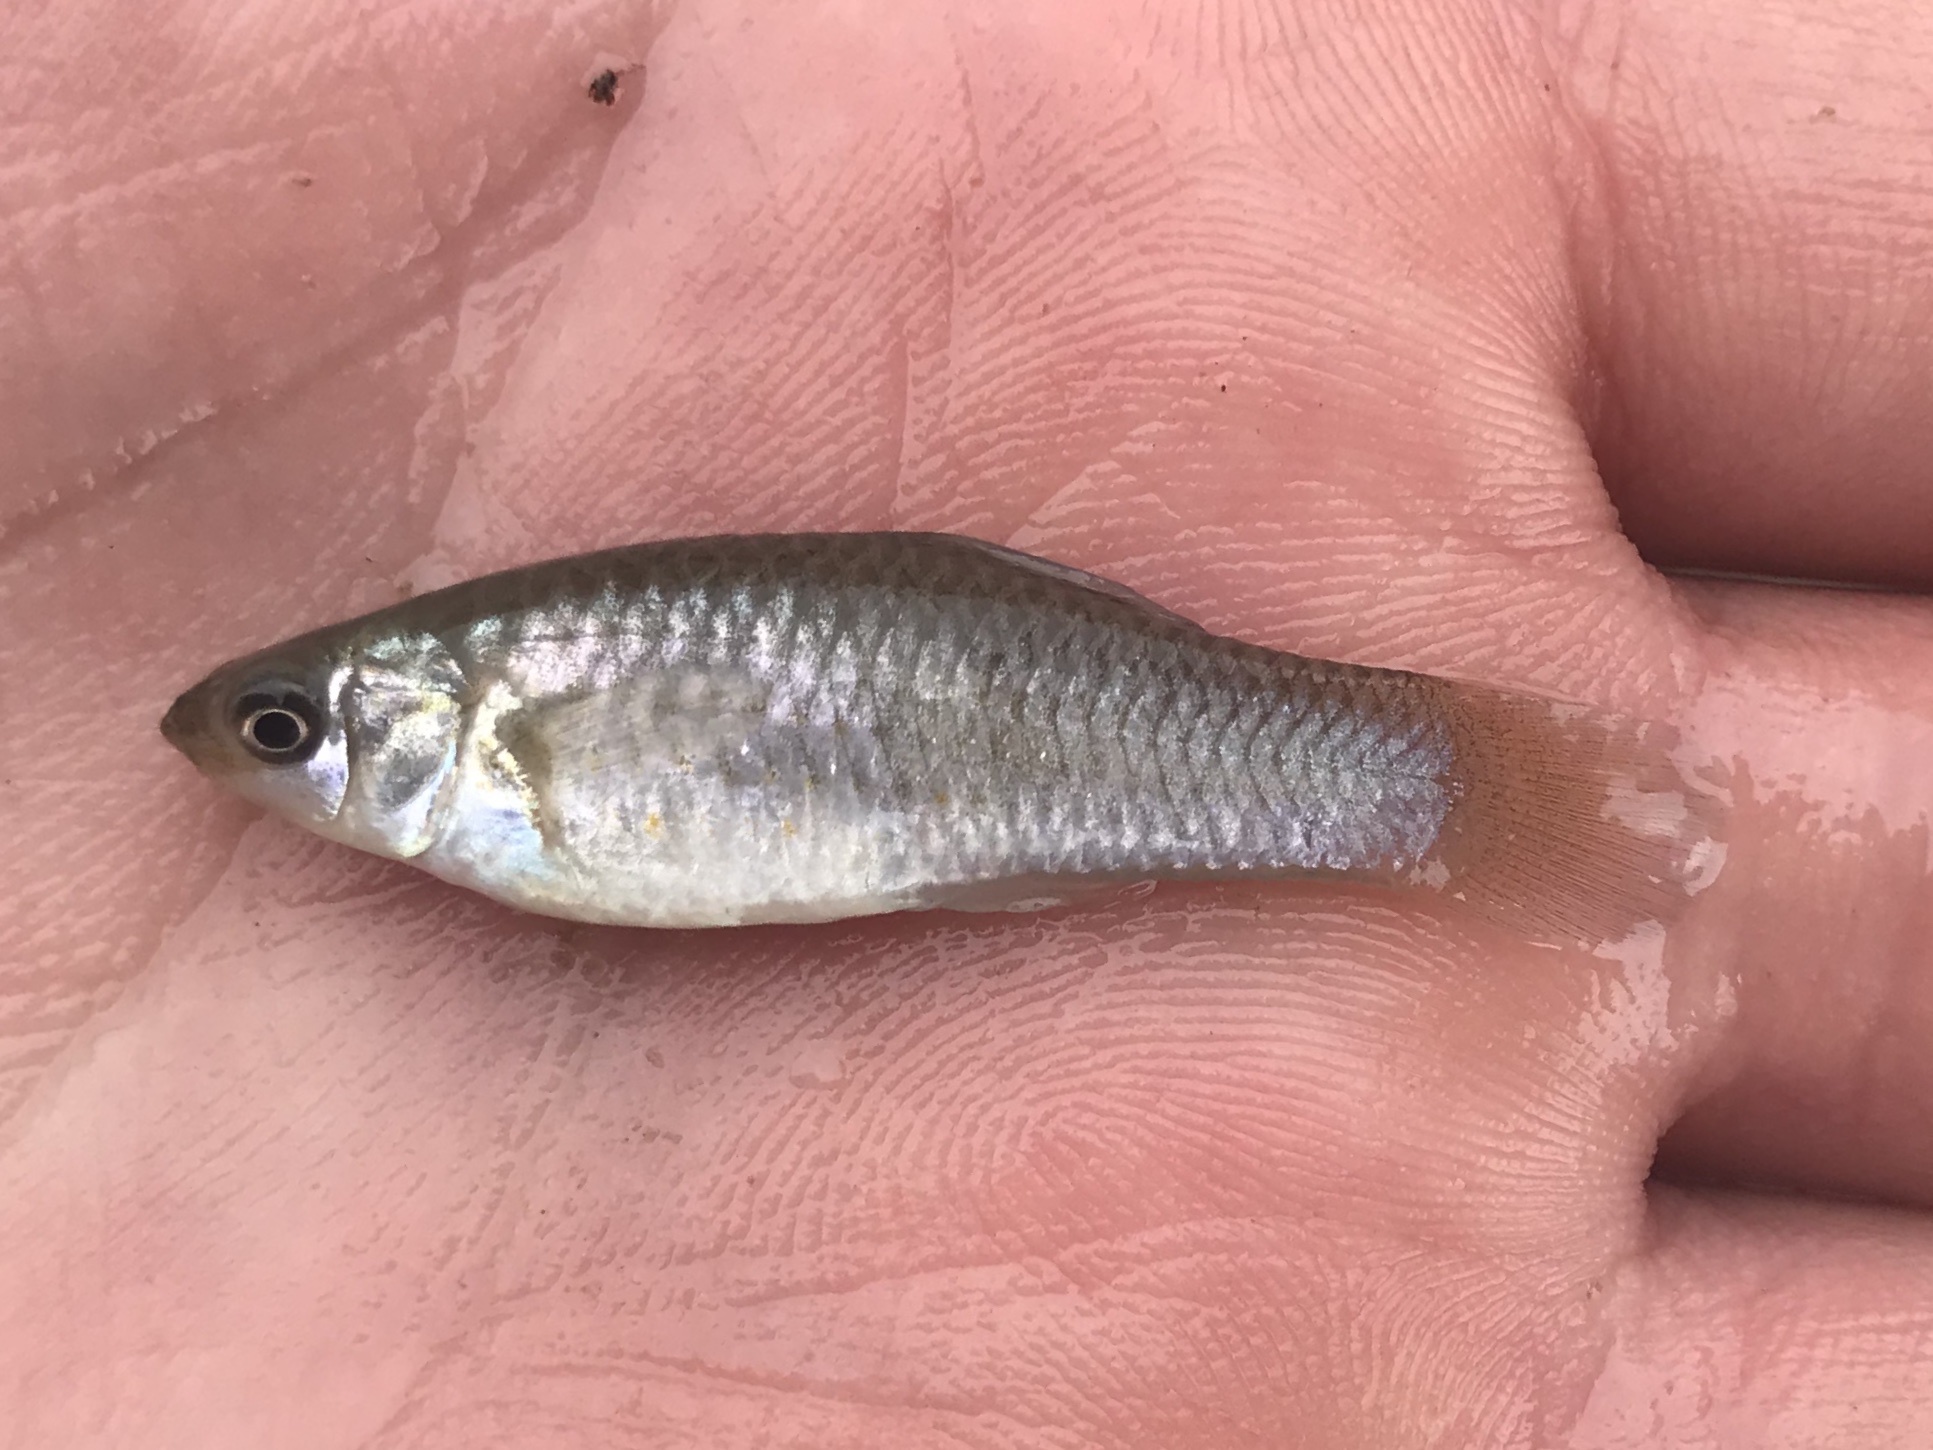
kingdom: Animalia
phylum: Chordata
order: Cyprinodontiformes
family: Poeciliidae
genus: Poecilia
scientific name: Poecilia formosa
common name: Amazon molly
